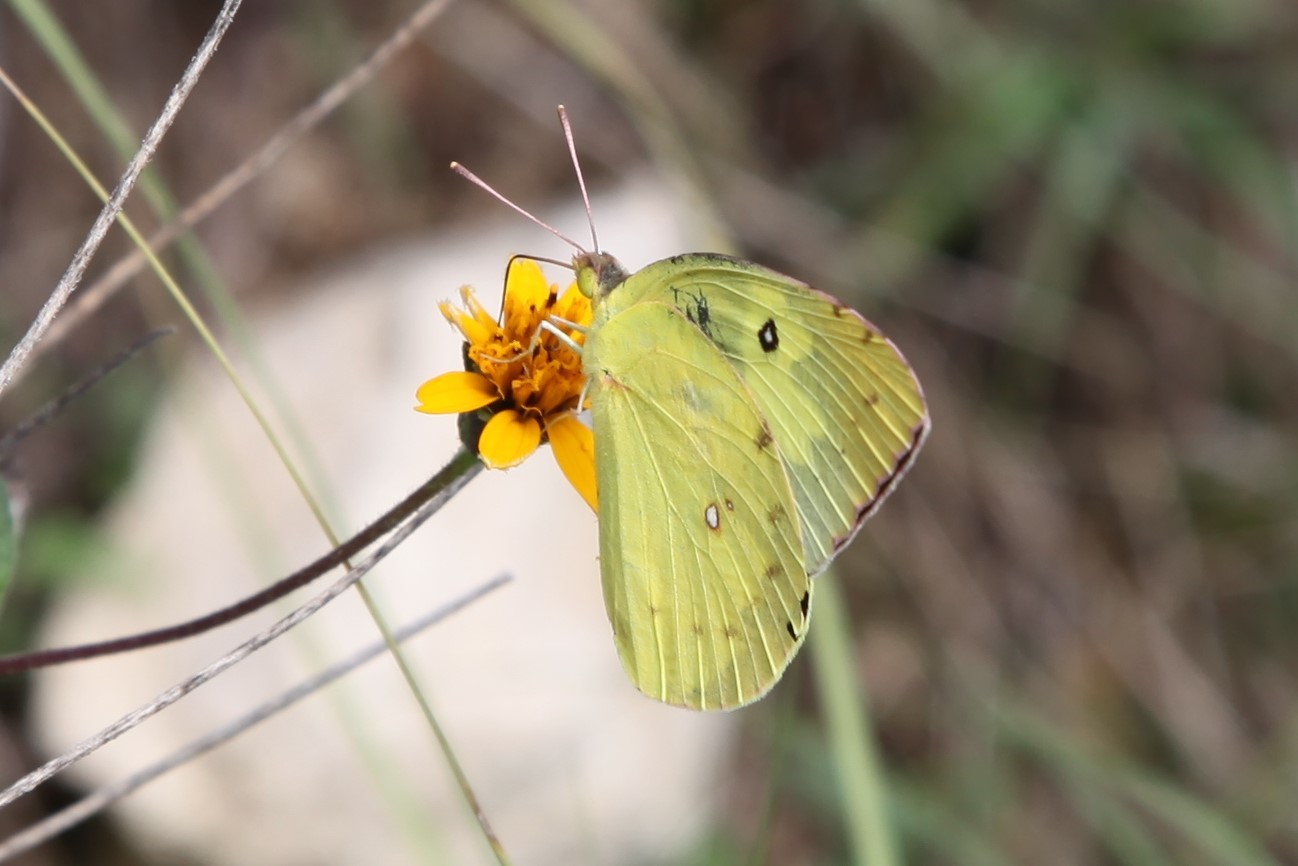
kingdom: Animalia
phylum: Arthropoda
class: Insecta
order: Lepidoptera
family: Pieridae
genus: Zerene
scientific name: Zerene cesonia
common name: Southern dogface
